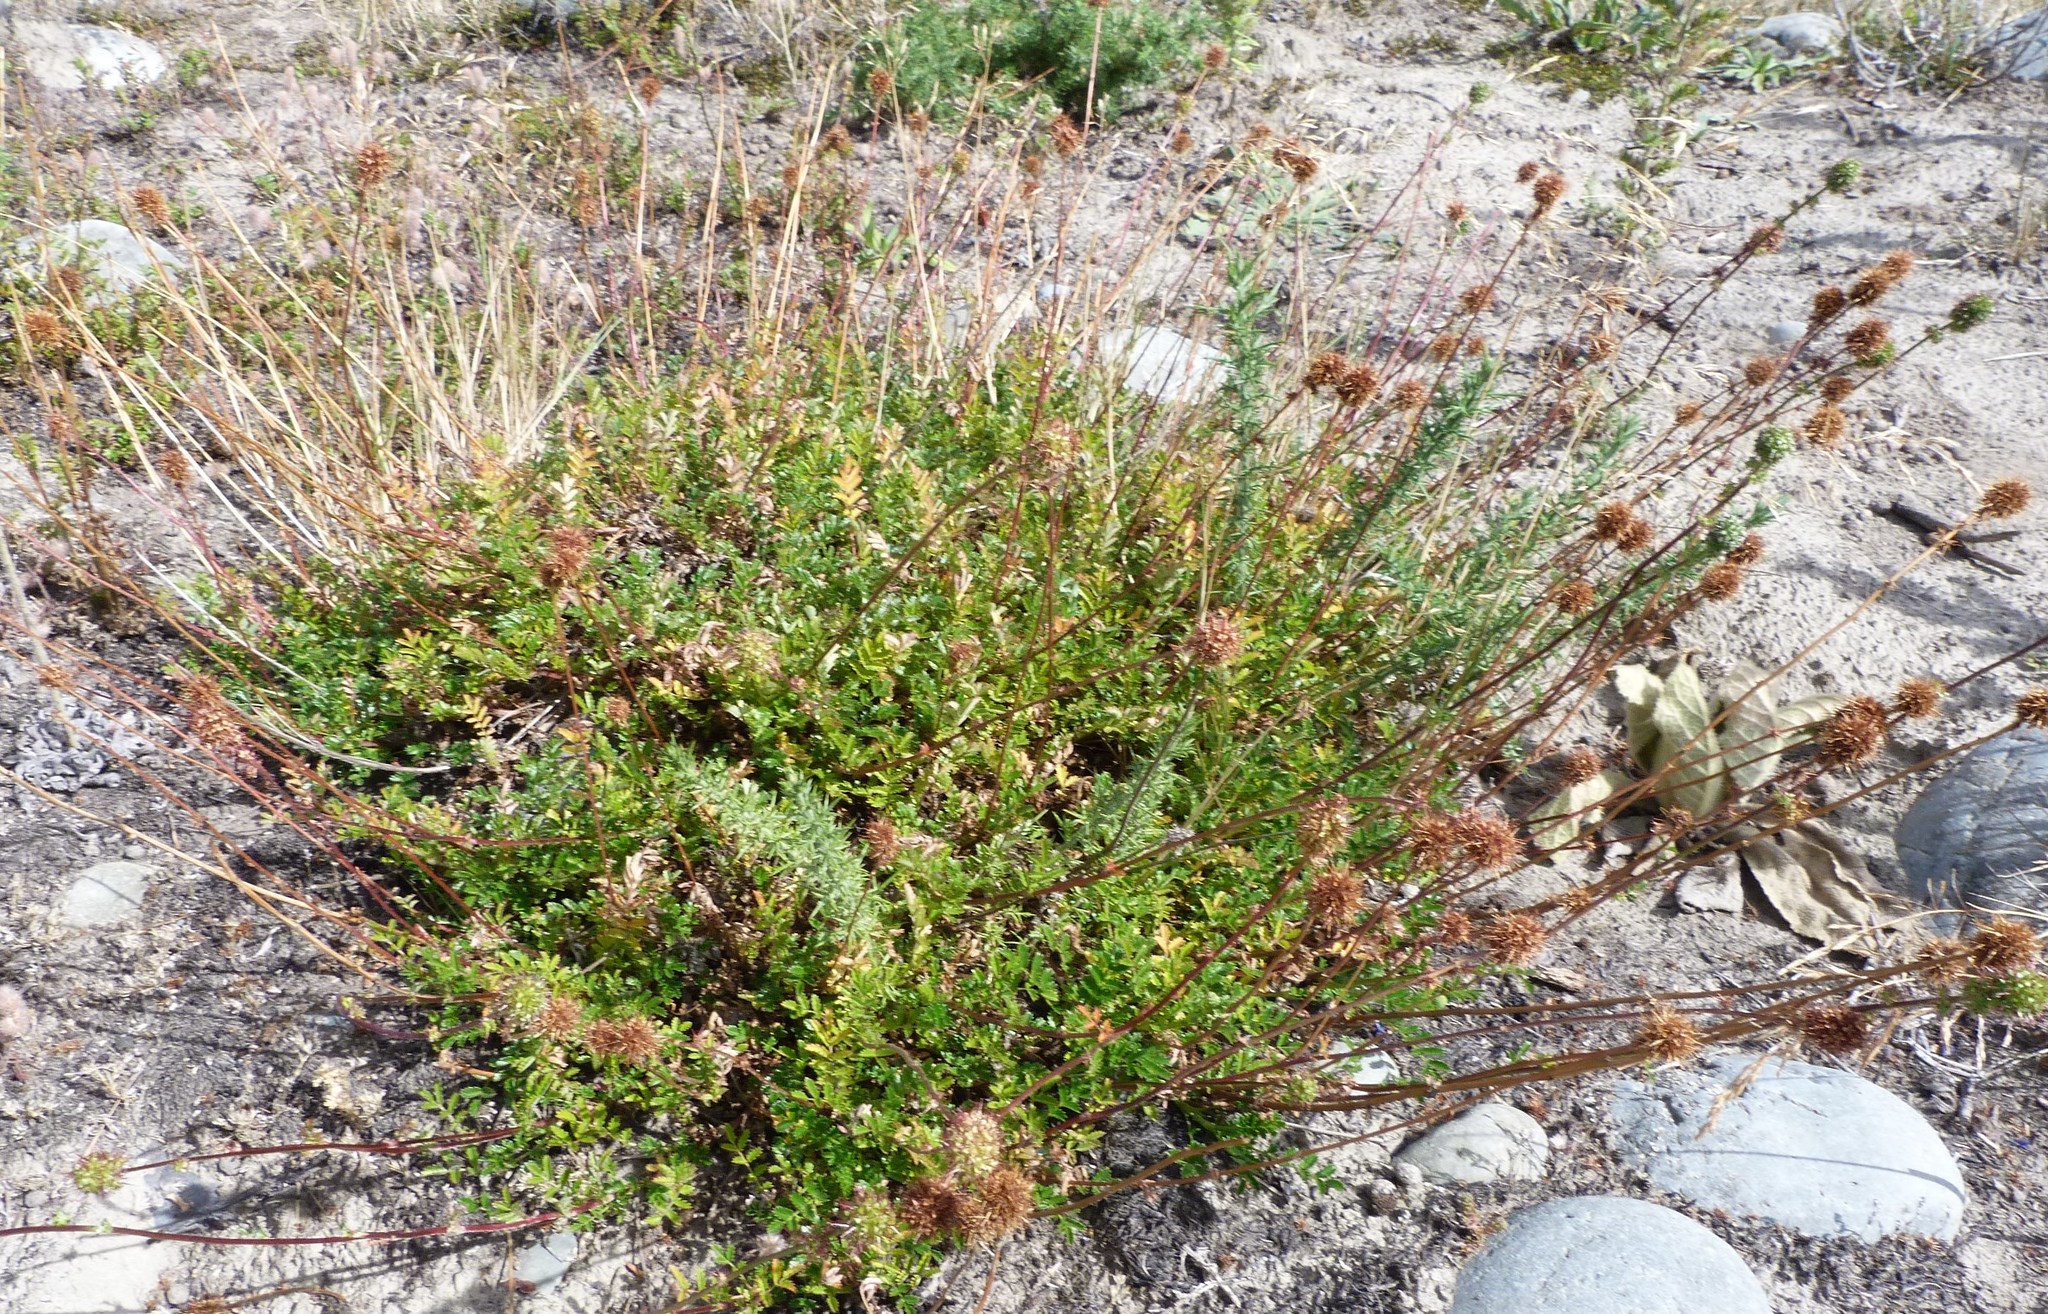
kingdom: Plantae
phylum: Tracheophyta
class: Magnoliopsida
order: Rosales
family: Rosaceae
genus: Acaena
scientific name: Acaena novae-zelandiae
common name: Pirri-pirri-bur
